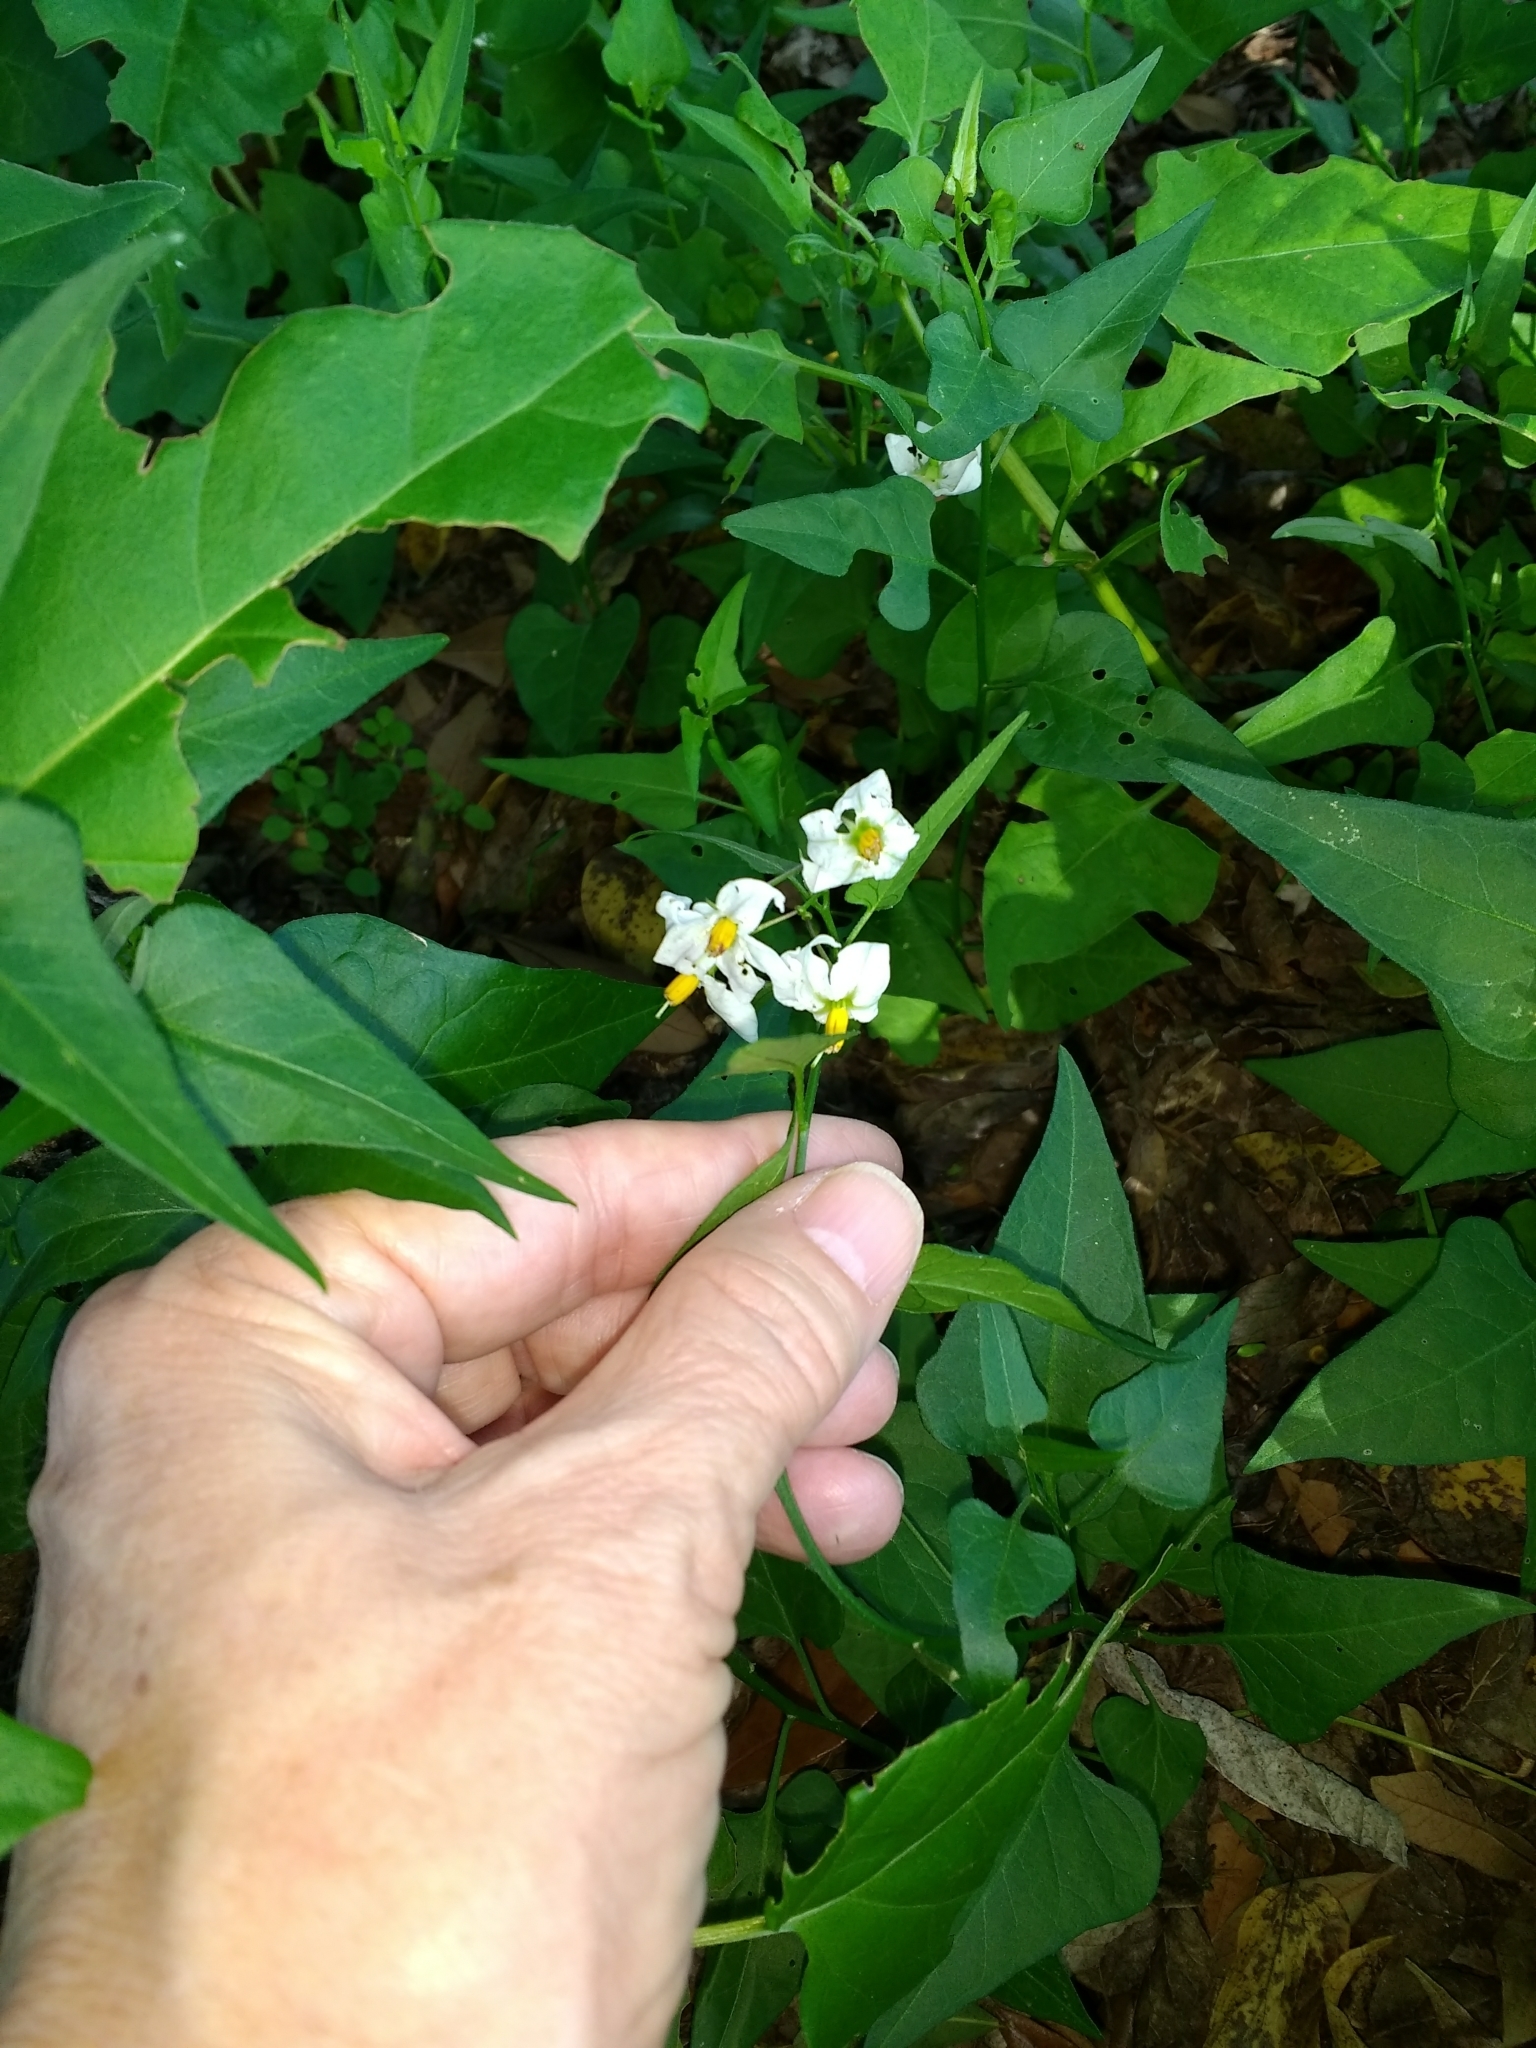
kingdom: Plantae
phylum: Tracheophyta
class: Magnoliopsida
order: Solanales
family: Solanaceae
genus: Solanum
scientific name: Solanum triquetrum
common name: Texas nightshade
